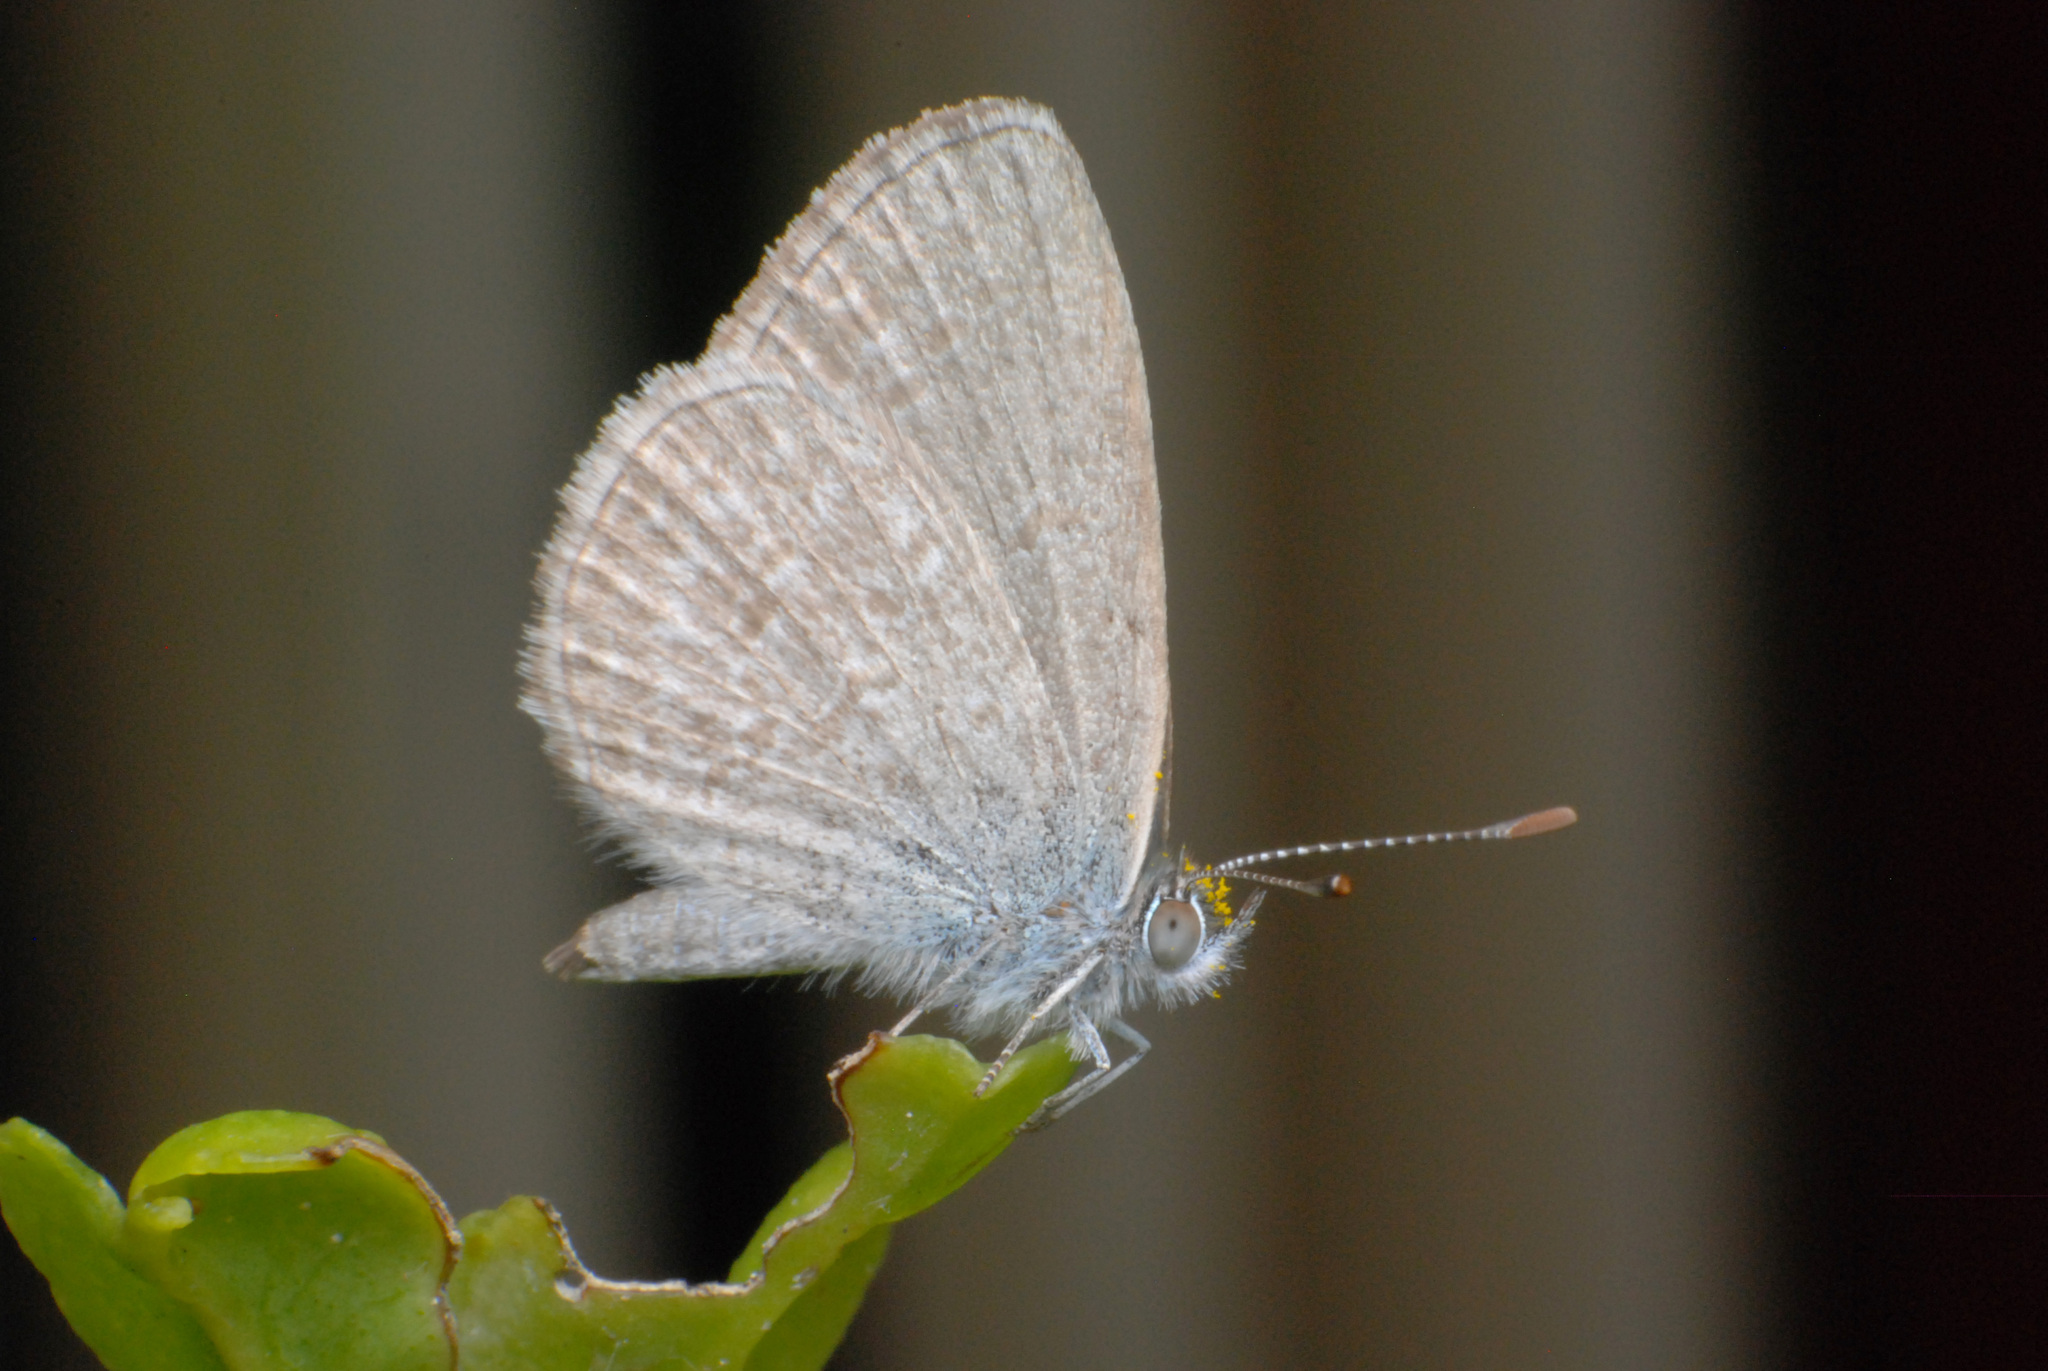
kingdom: Animalia
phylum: Arthropoda
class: Insecta
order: Lepidoptera
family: Lycaenidae
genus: Zizina
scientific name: Zizina otis
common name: Lesser grass blue
